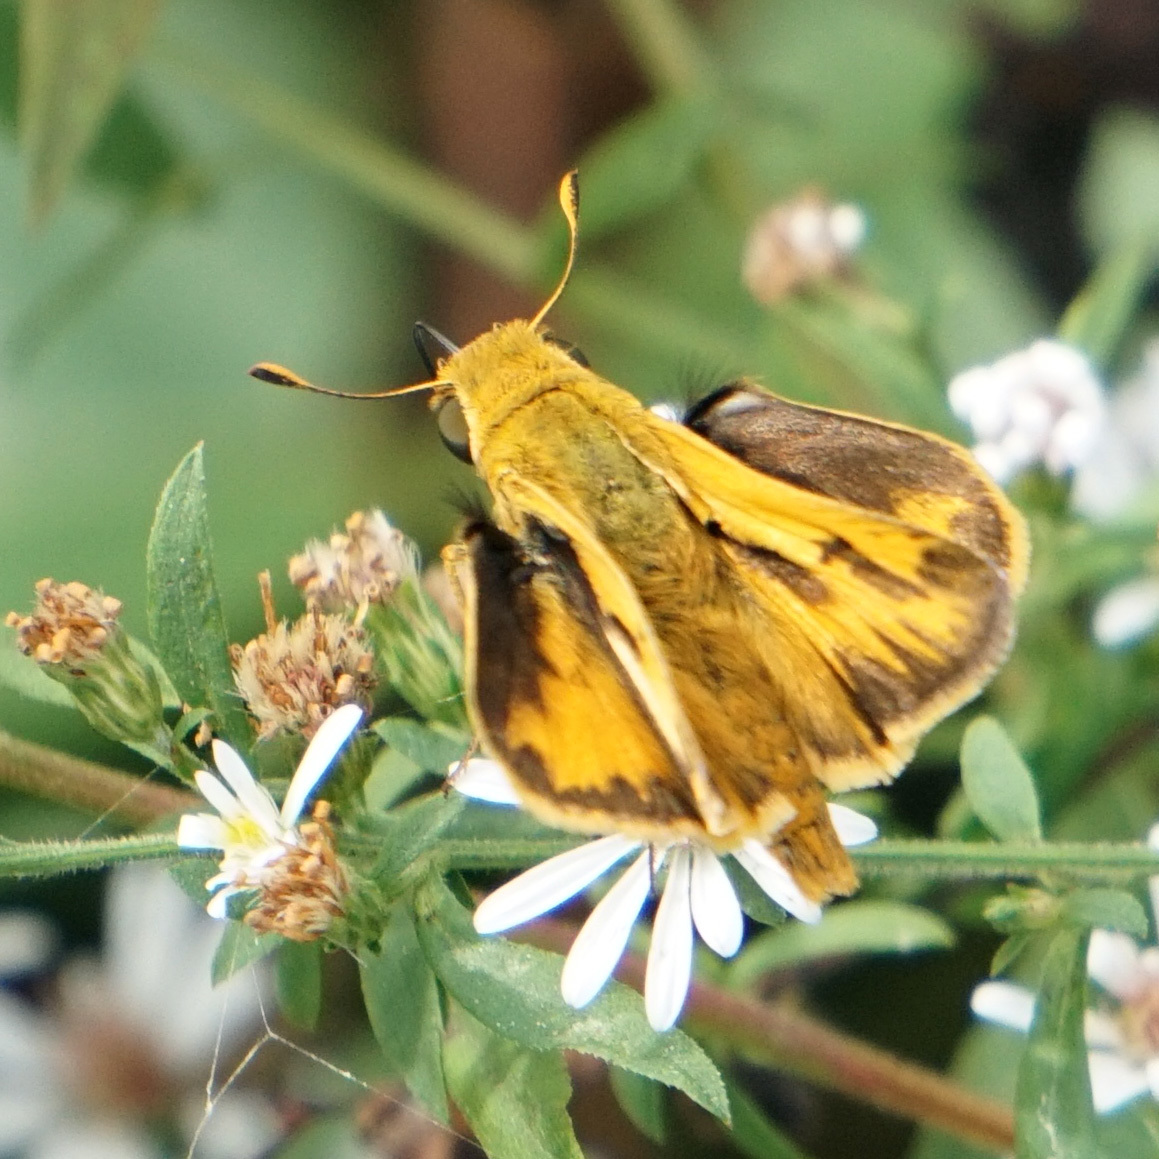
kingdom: Animalia
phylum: Arthropoda
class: Insecta
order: Lepidoptera
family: Hesperiidae
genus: Hylephila
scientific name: Hylephila phyleus
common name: Fiery skipper
